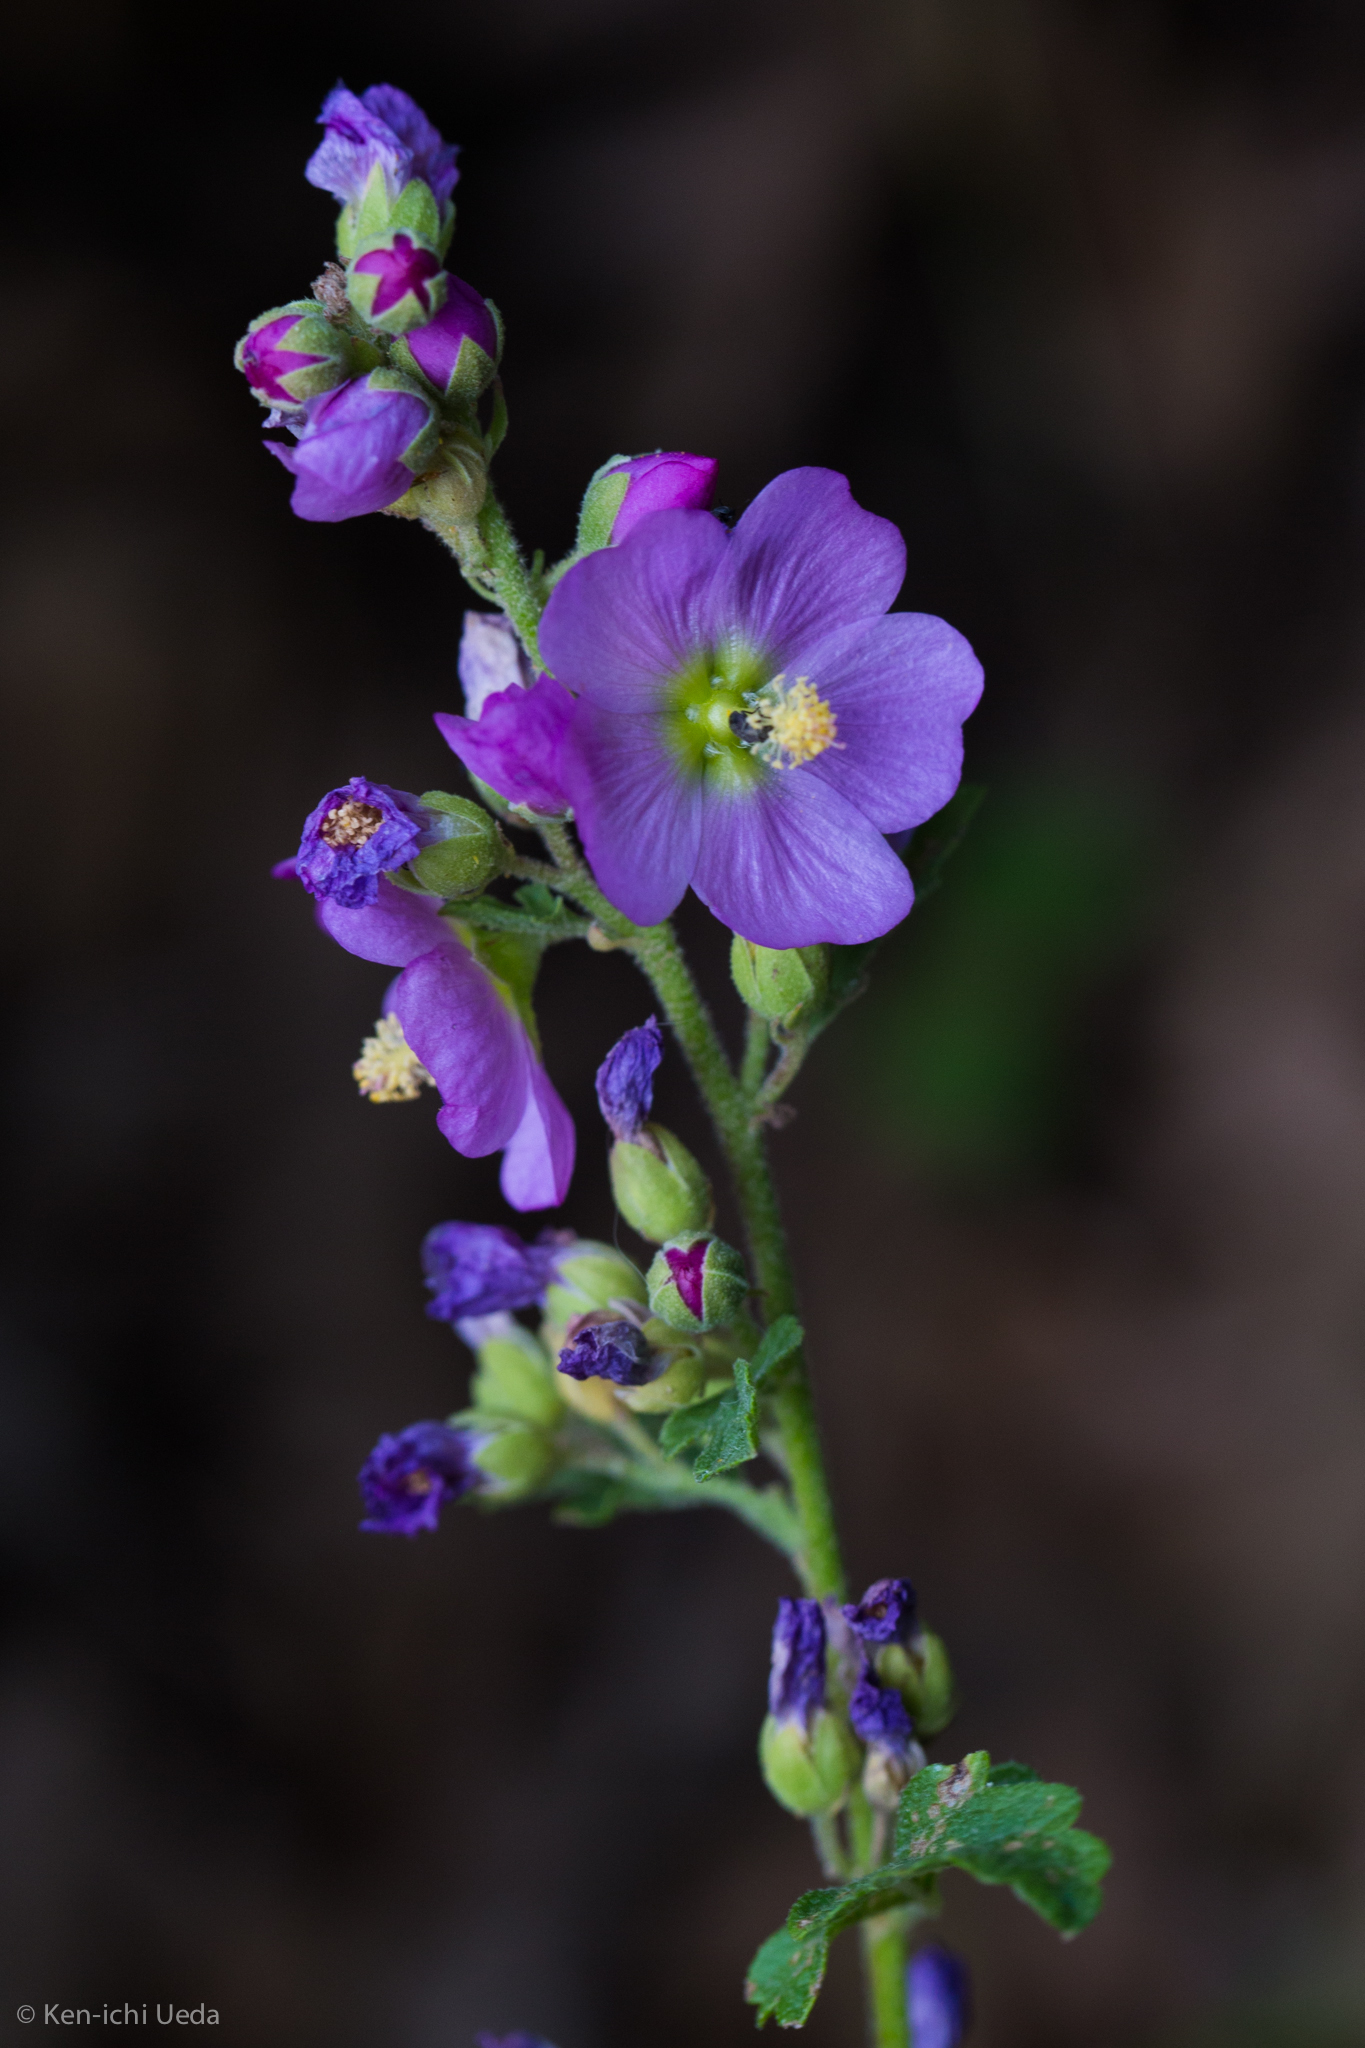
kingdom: Plantae
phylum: Tracheophyta
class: Magnoliopsida
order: Malvales
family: Malvaceae
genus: Sphaeralcea
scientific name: Sphaeralcea fendleri
